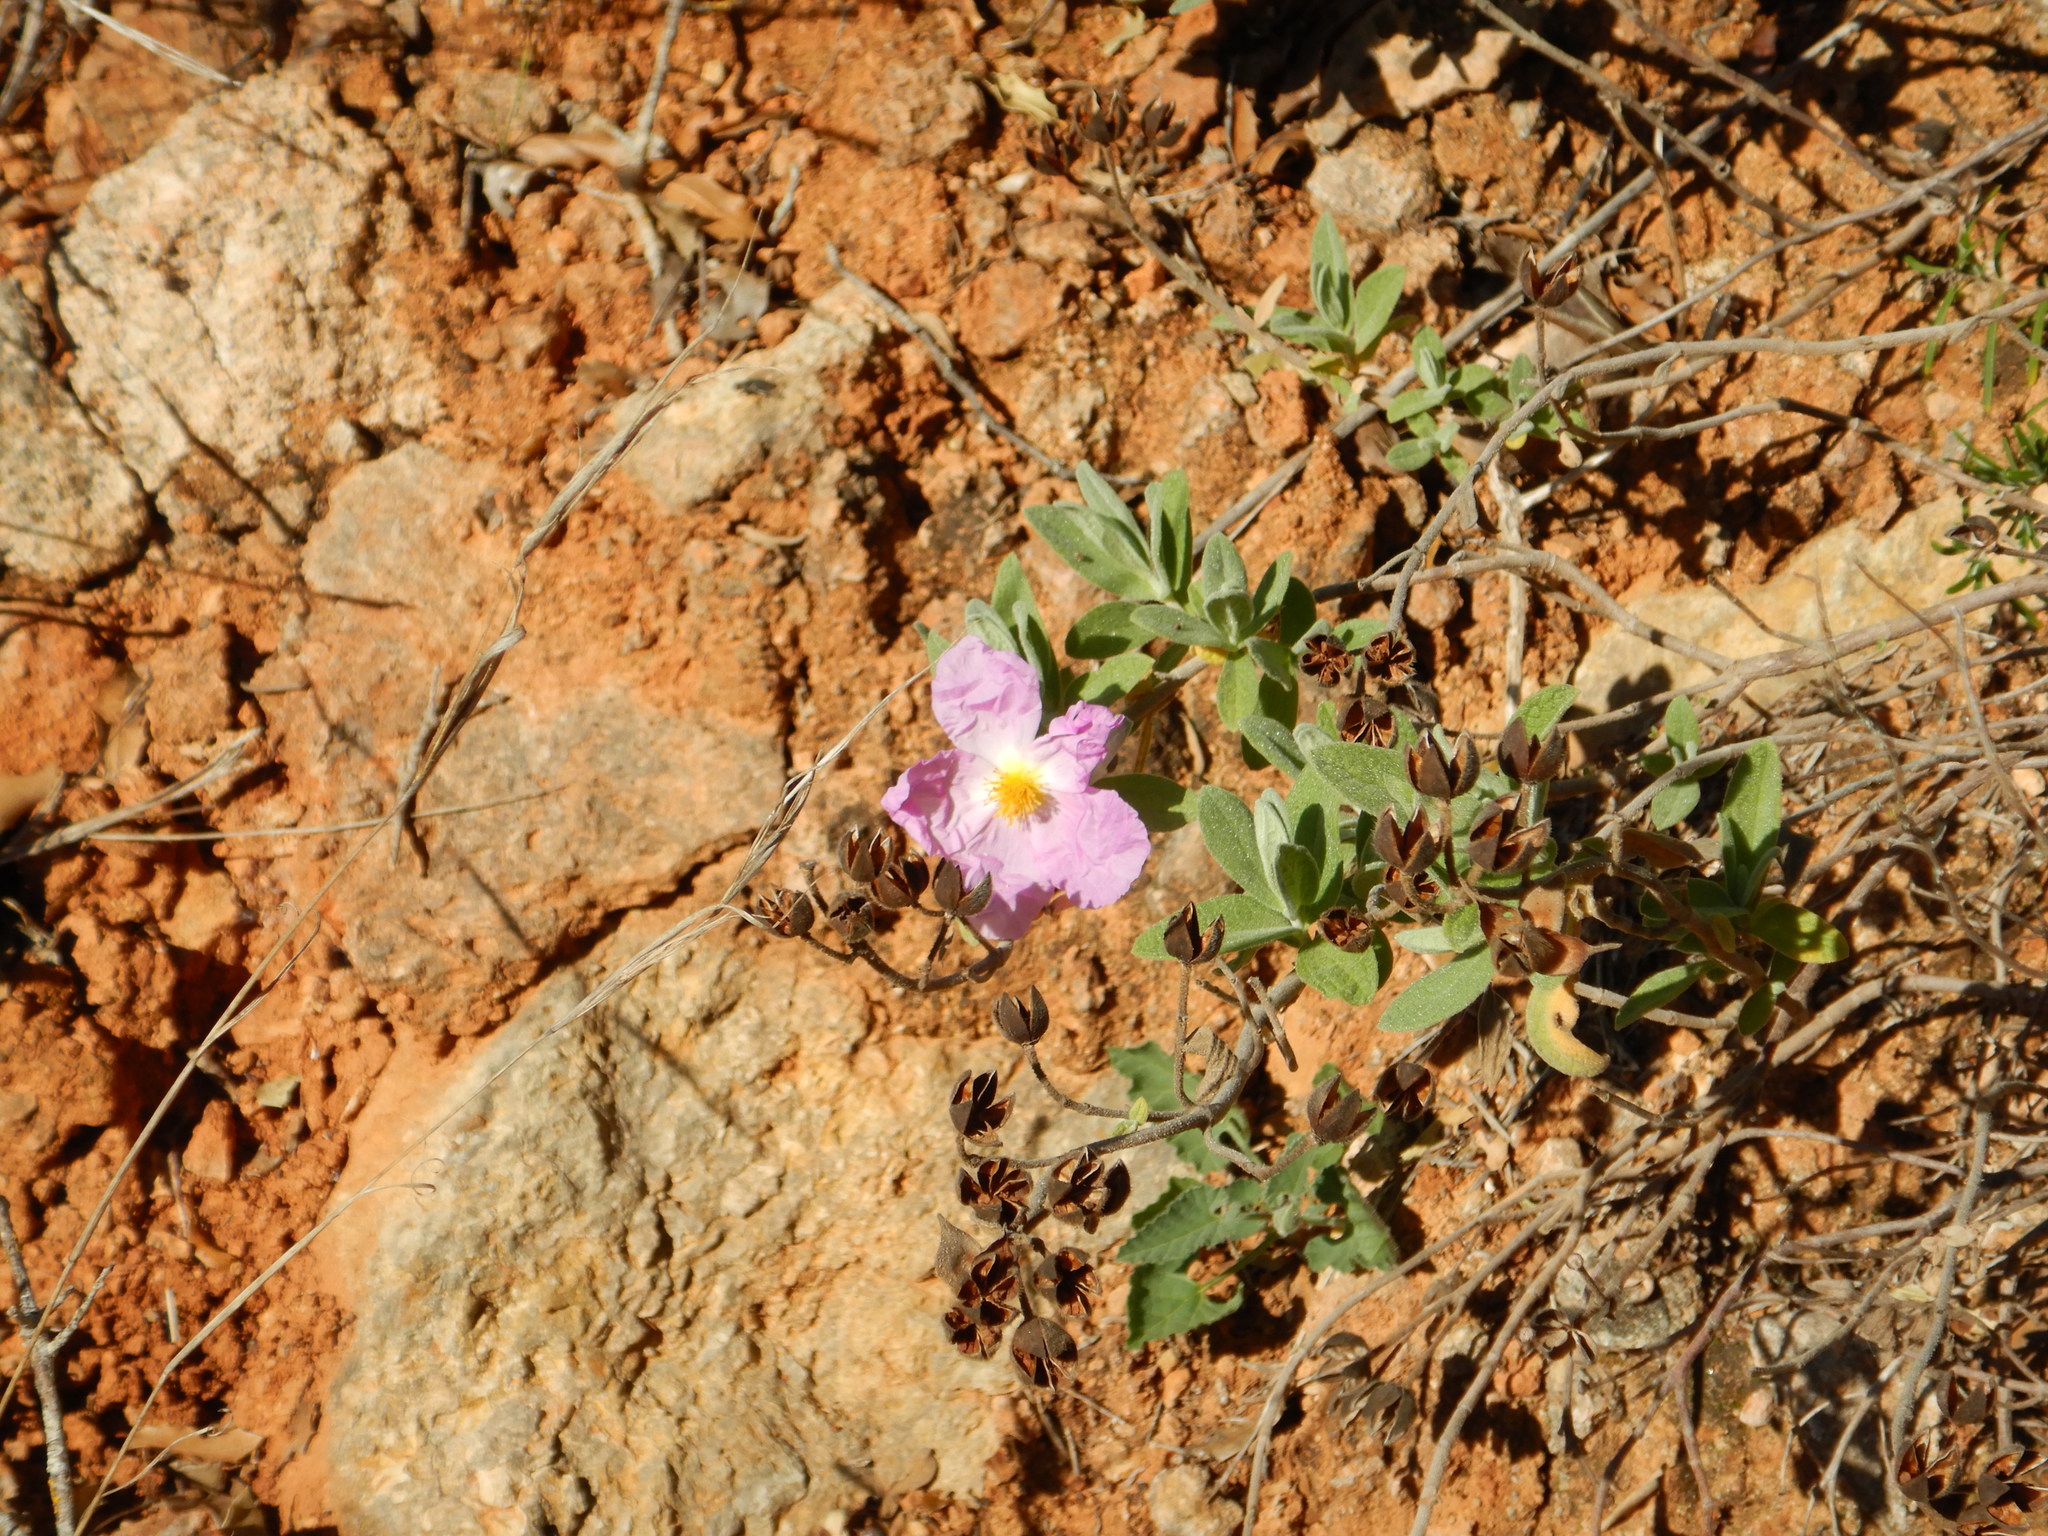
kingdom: Plantae
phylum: Tracheophyta
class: Magnoliopsida
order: Malvales
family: Cistaceae
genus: Cistus
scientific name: Cistus albidus
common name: White-leaf rock-rose
